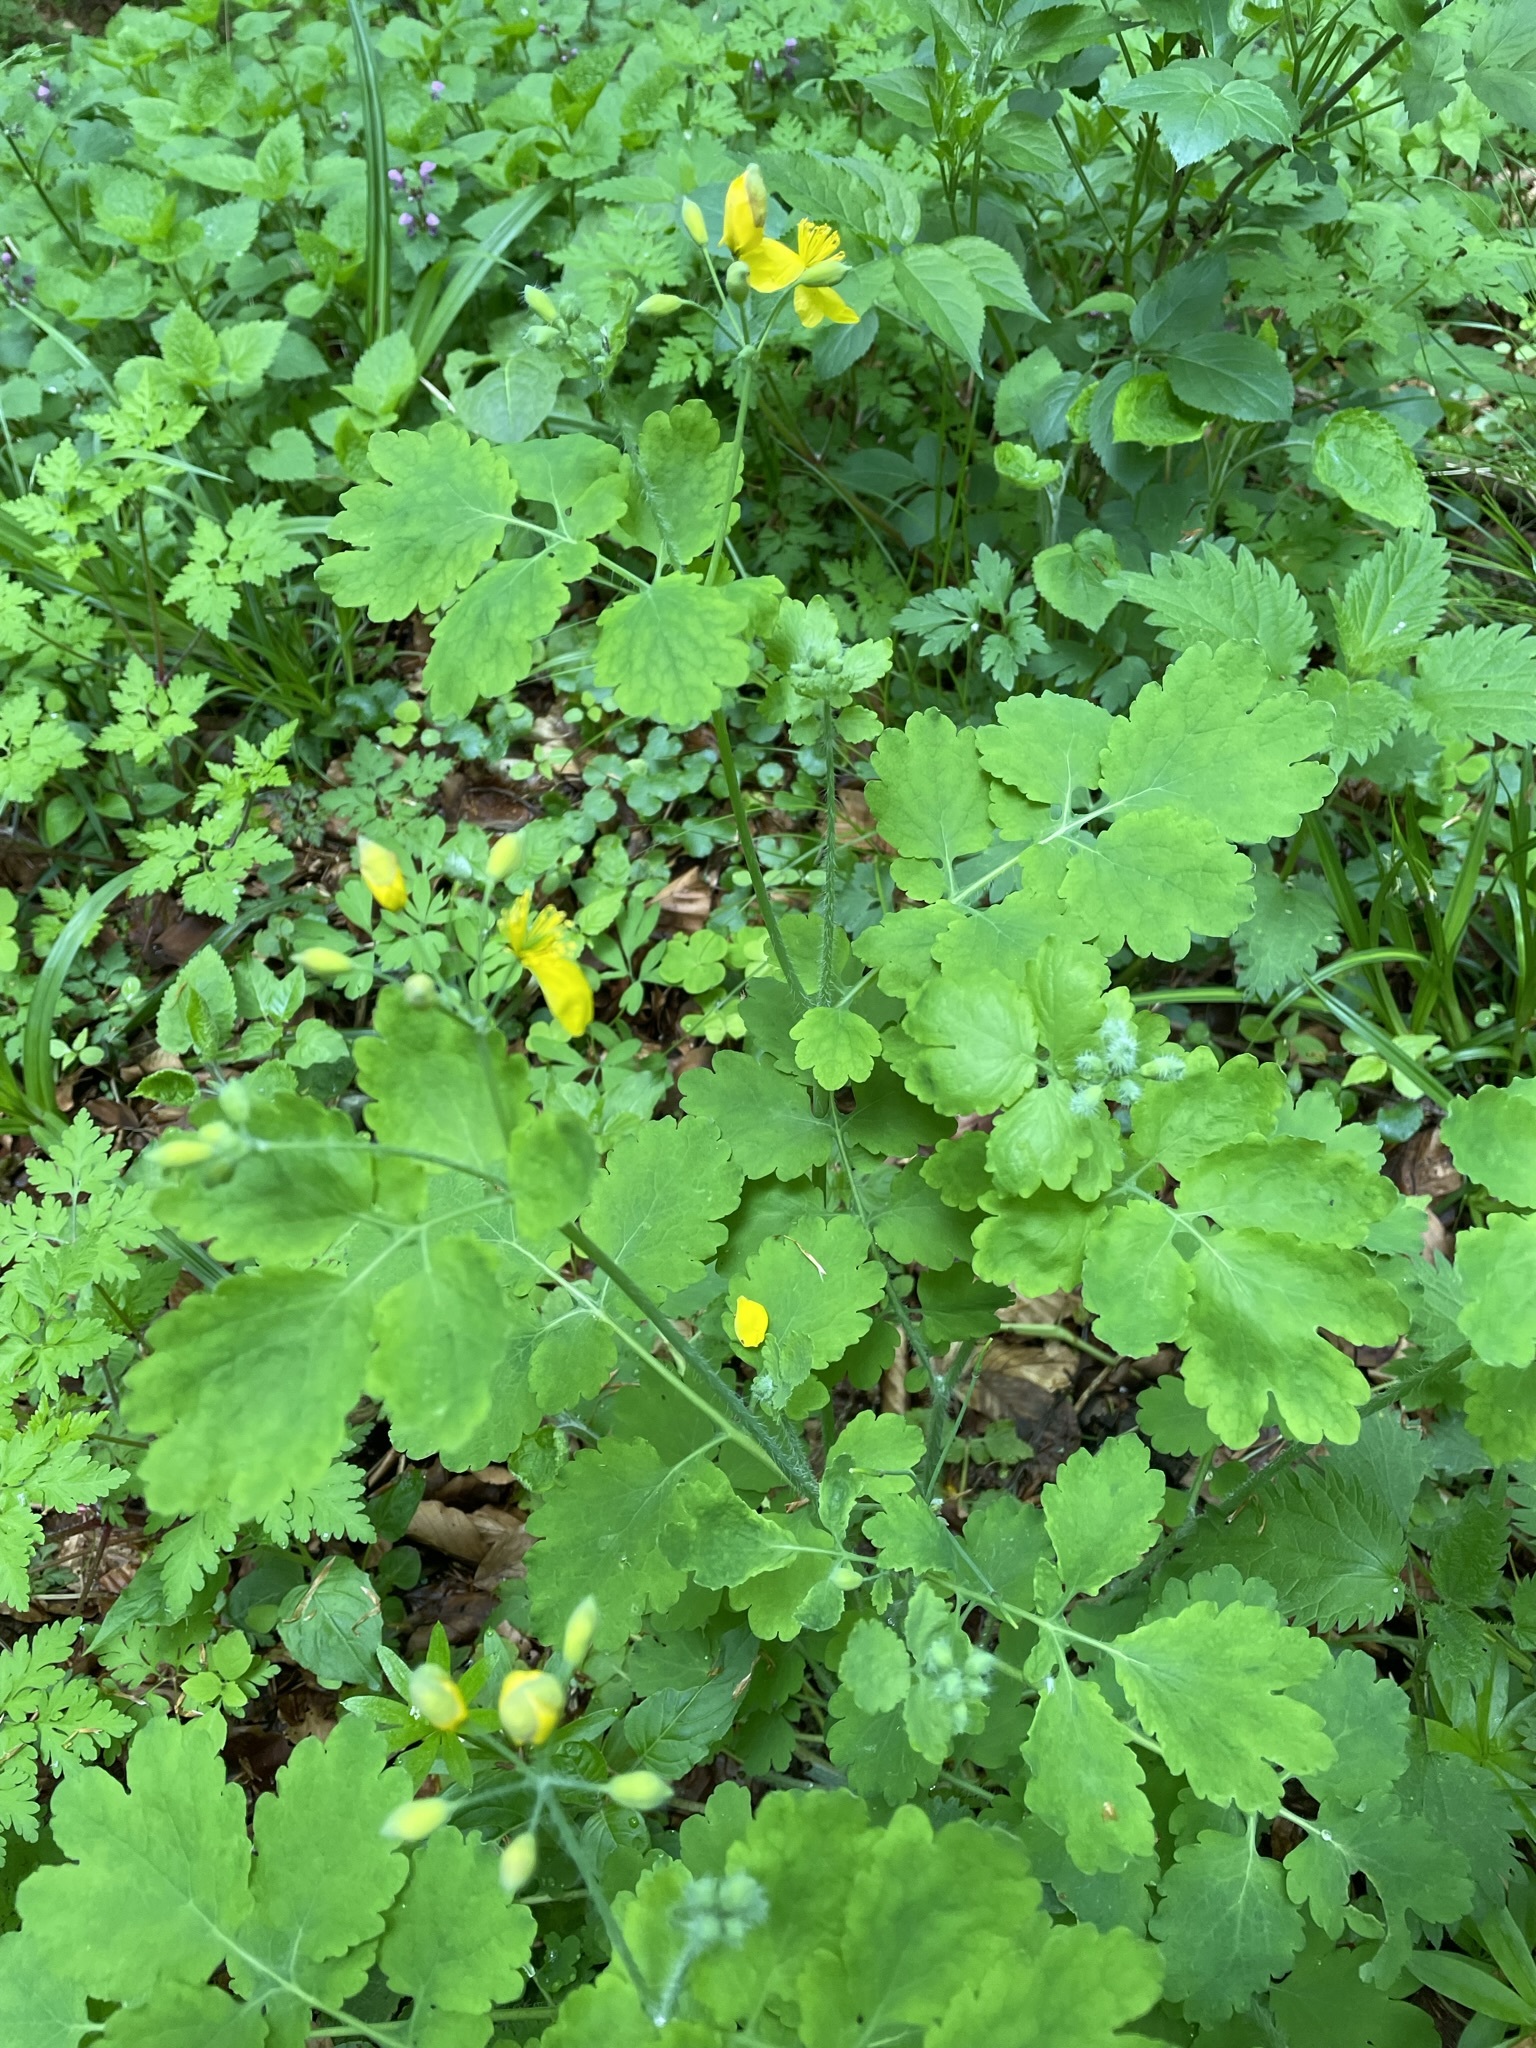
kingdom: Plantae
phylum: Tracheophyta
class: Magnoliopsida
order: Ranunculales
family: Papaveraceae
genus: Chelidonium
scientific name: Chelidonium majus
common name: Greater celandine
